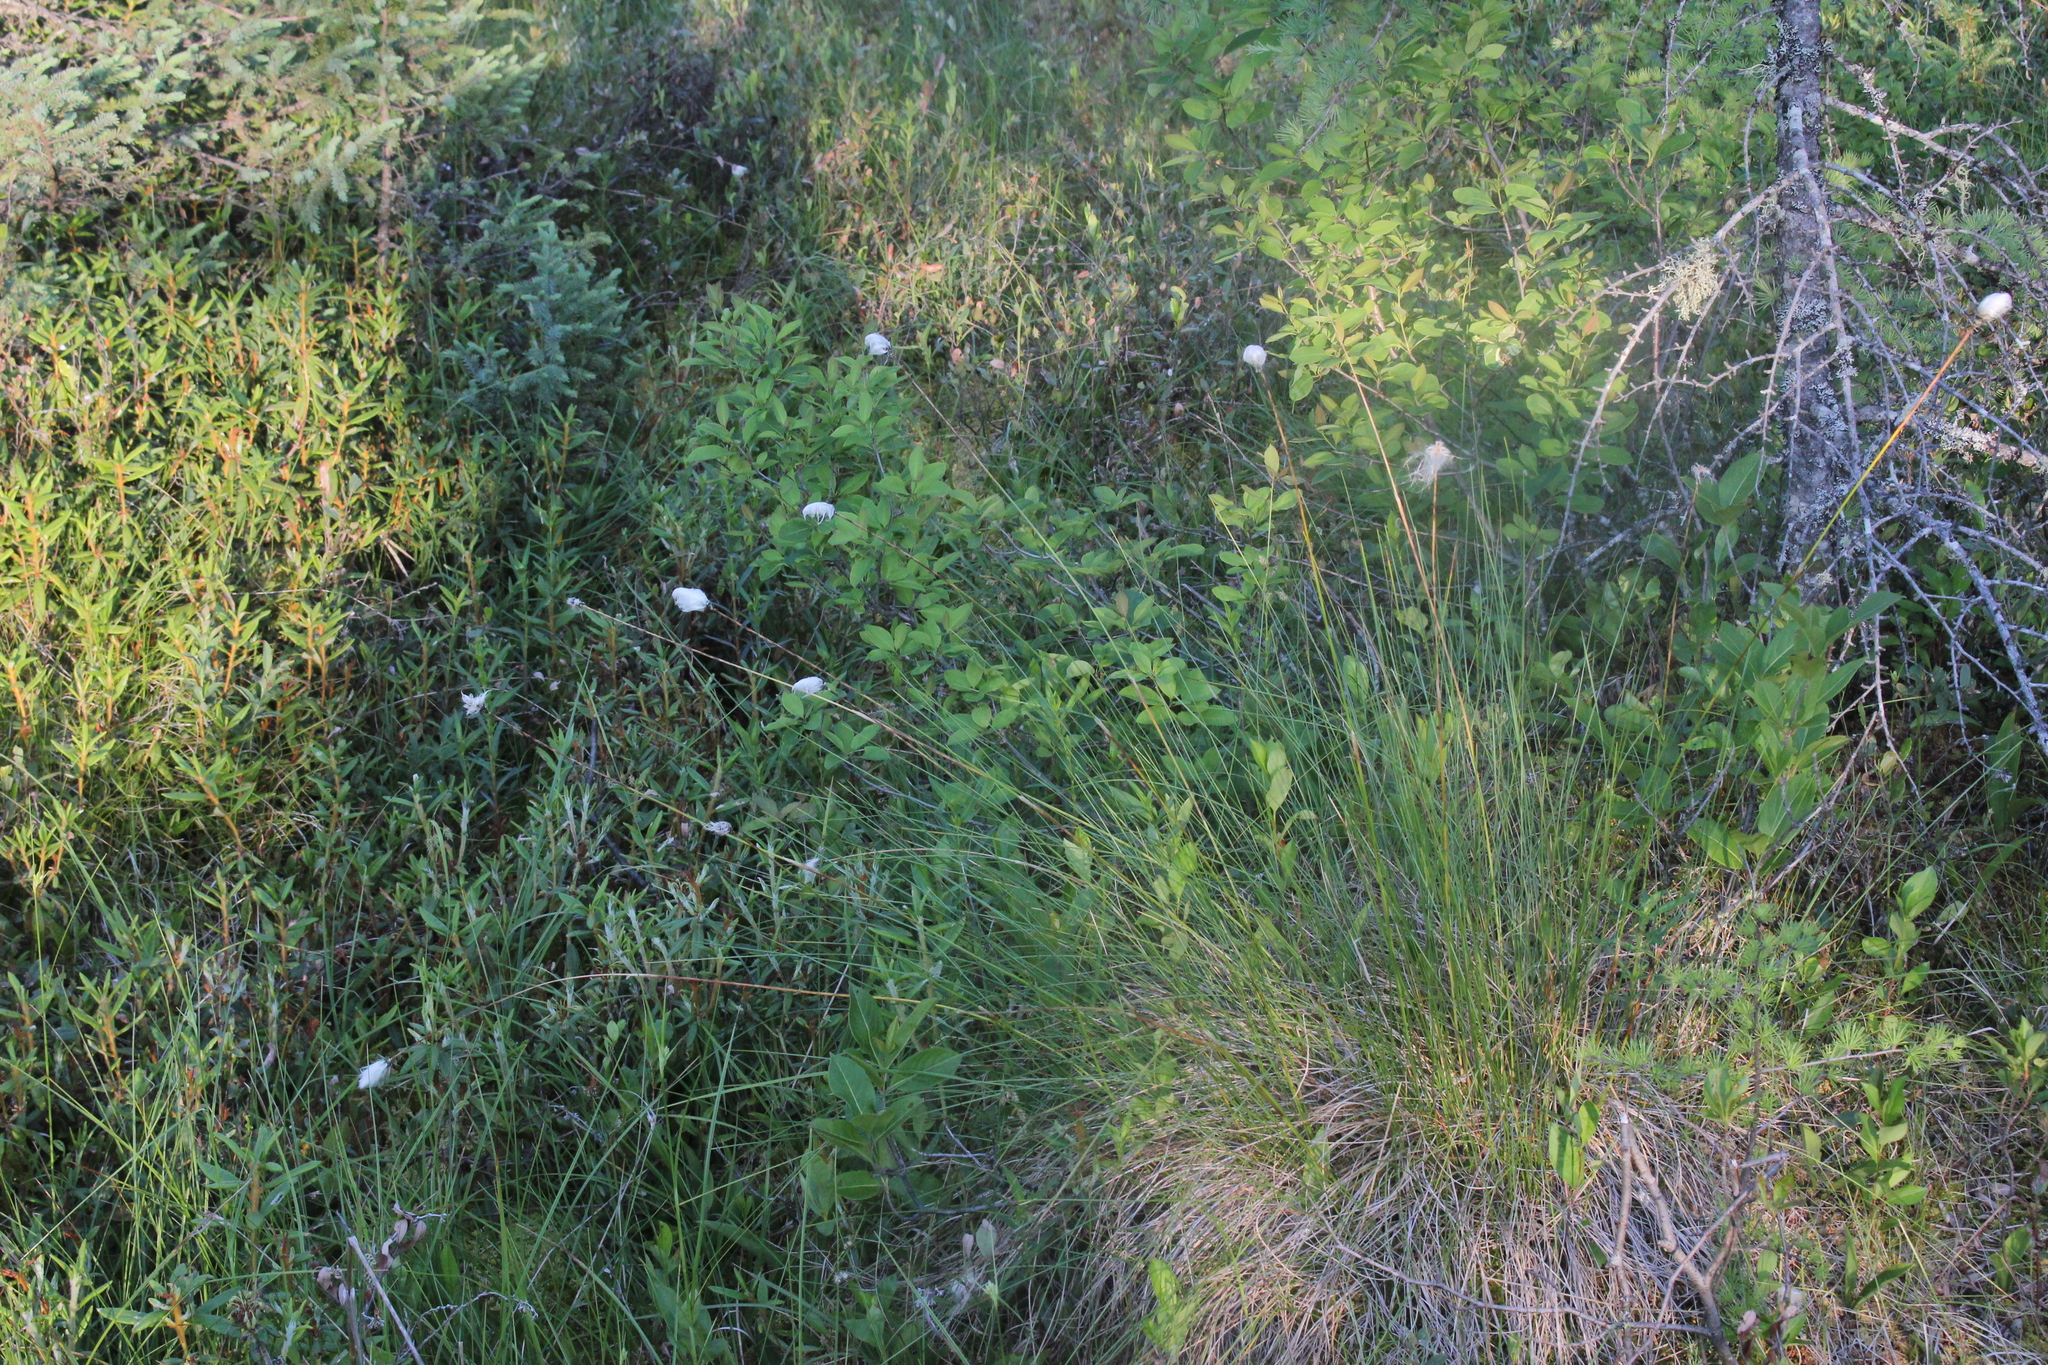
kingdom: Plantae
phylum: Tracheophyta
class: Liliopsida
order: Poales
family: Cyperaceae
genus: Eriophorum
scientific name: Eriophorum vaginatum
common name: Hare's-tail cottongrass
